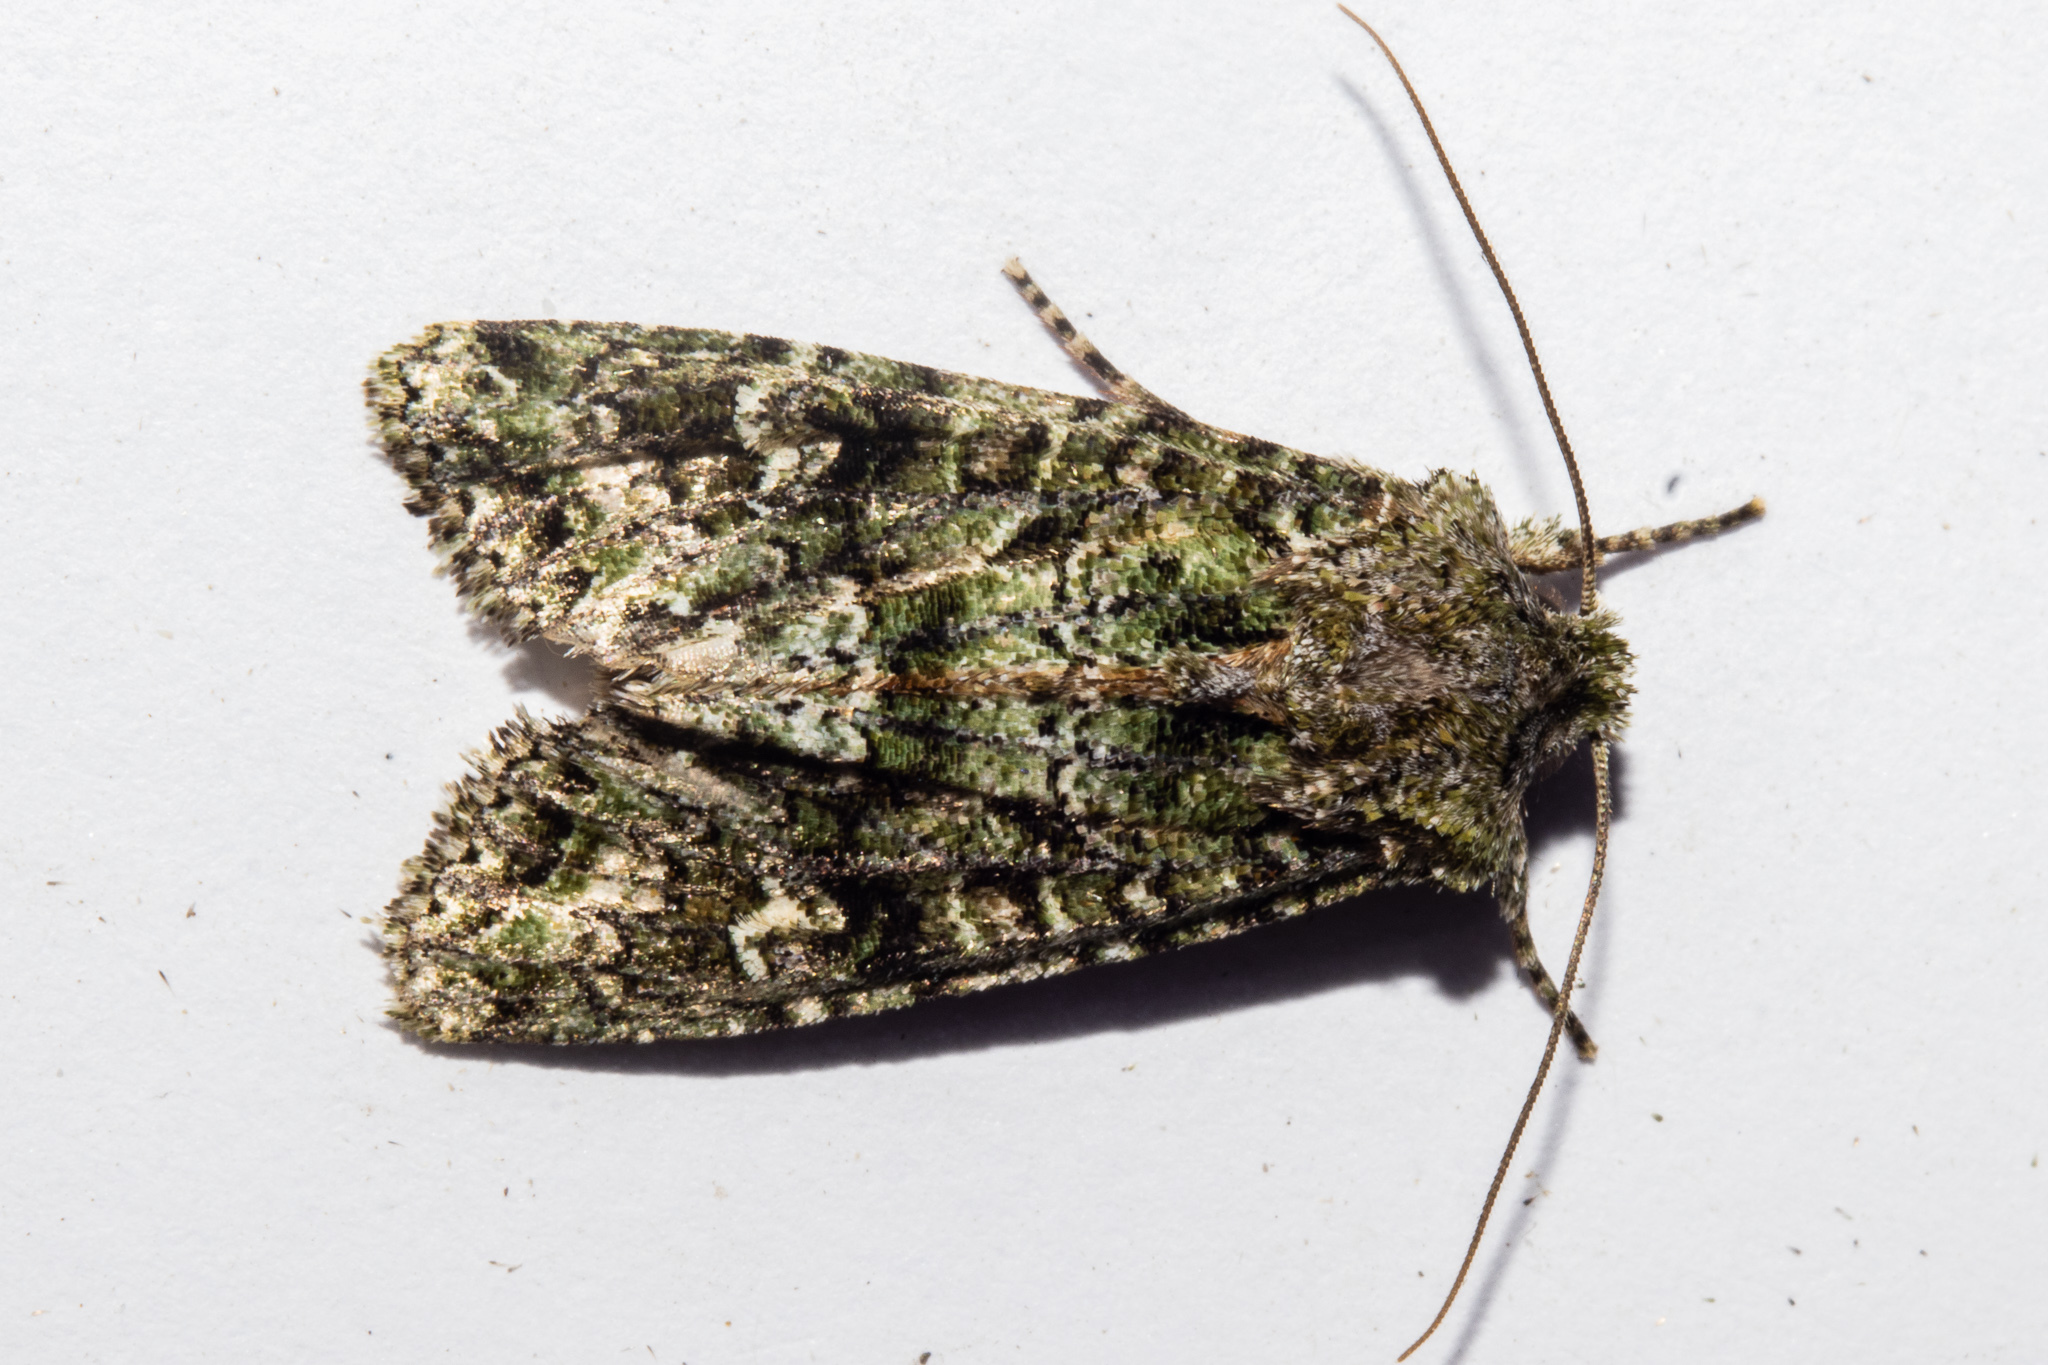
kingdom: Animalia
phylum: Arthropoda
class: Insecta
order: Lepidoptera
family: Noctuidae
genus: Ichneutica
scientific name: Ichneutica
